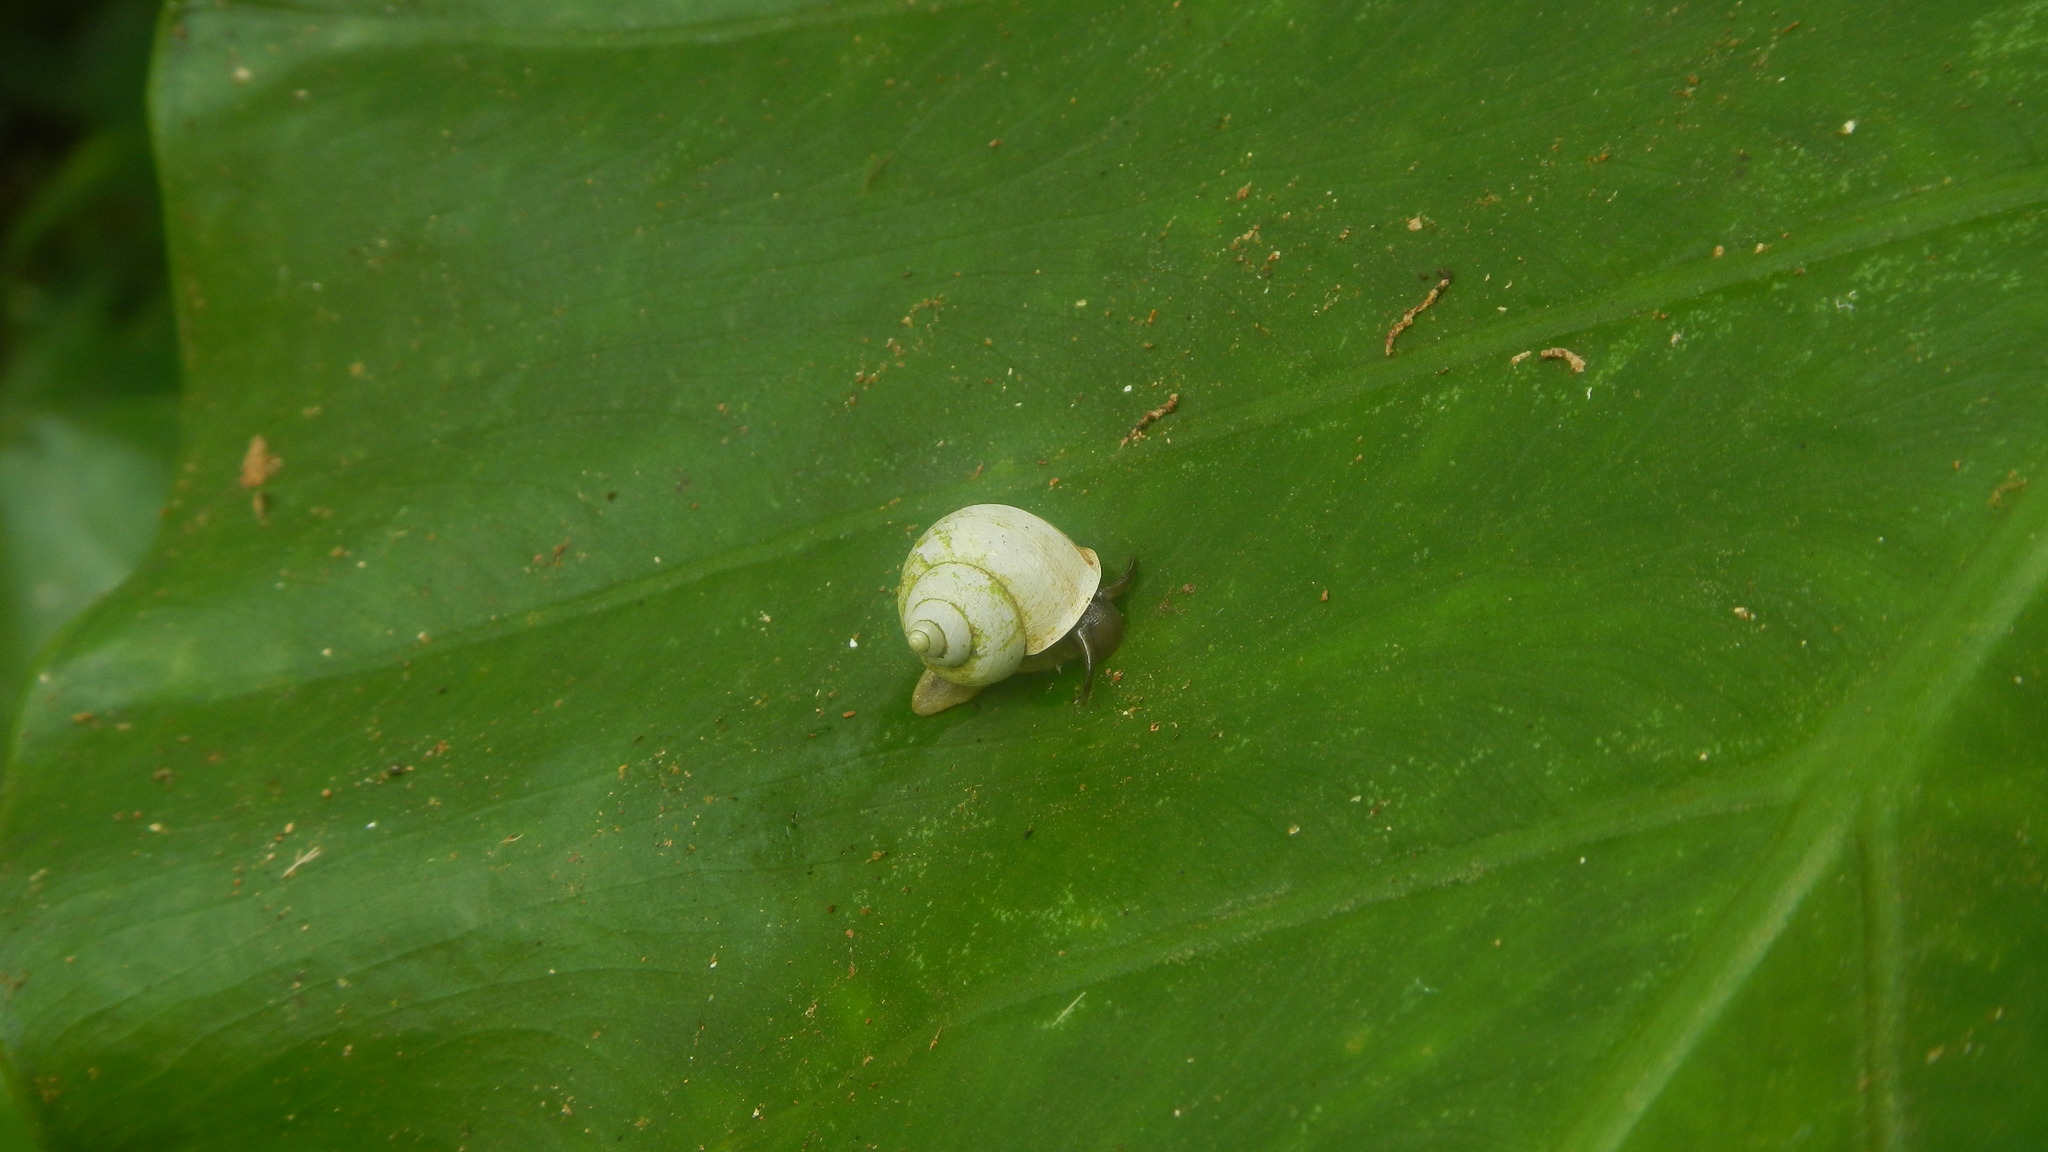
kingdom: Animalia
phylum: Mollusca
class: Gastropoda
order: Architaenioglossa
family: Cyclophoridae
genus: Leptopoma
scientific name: Leptopoma polyzonatum
